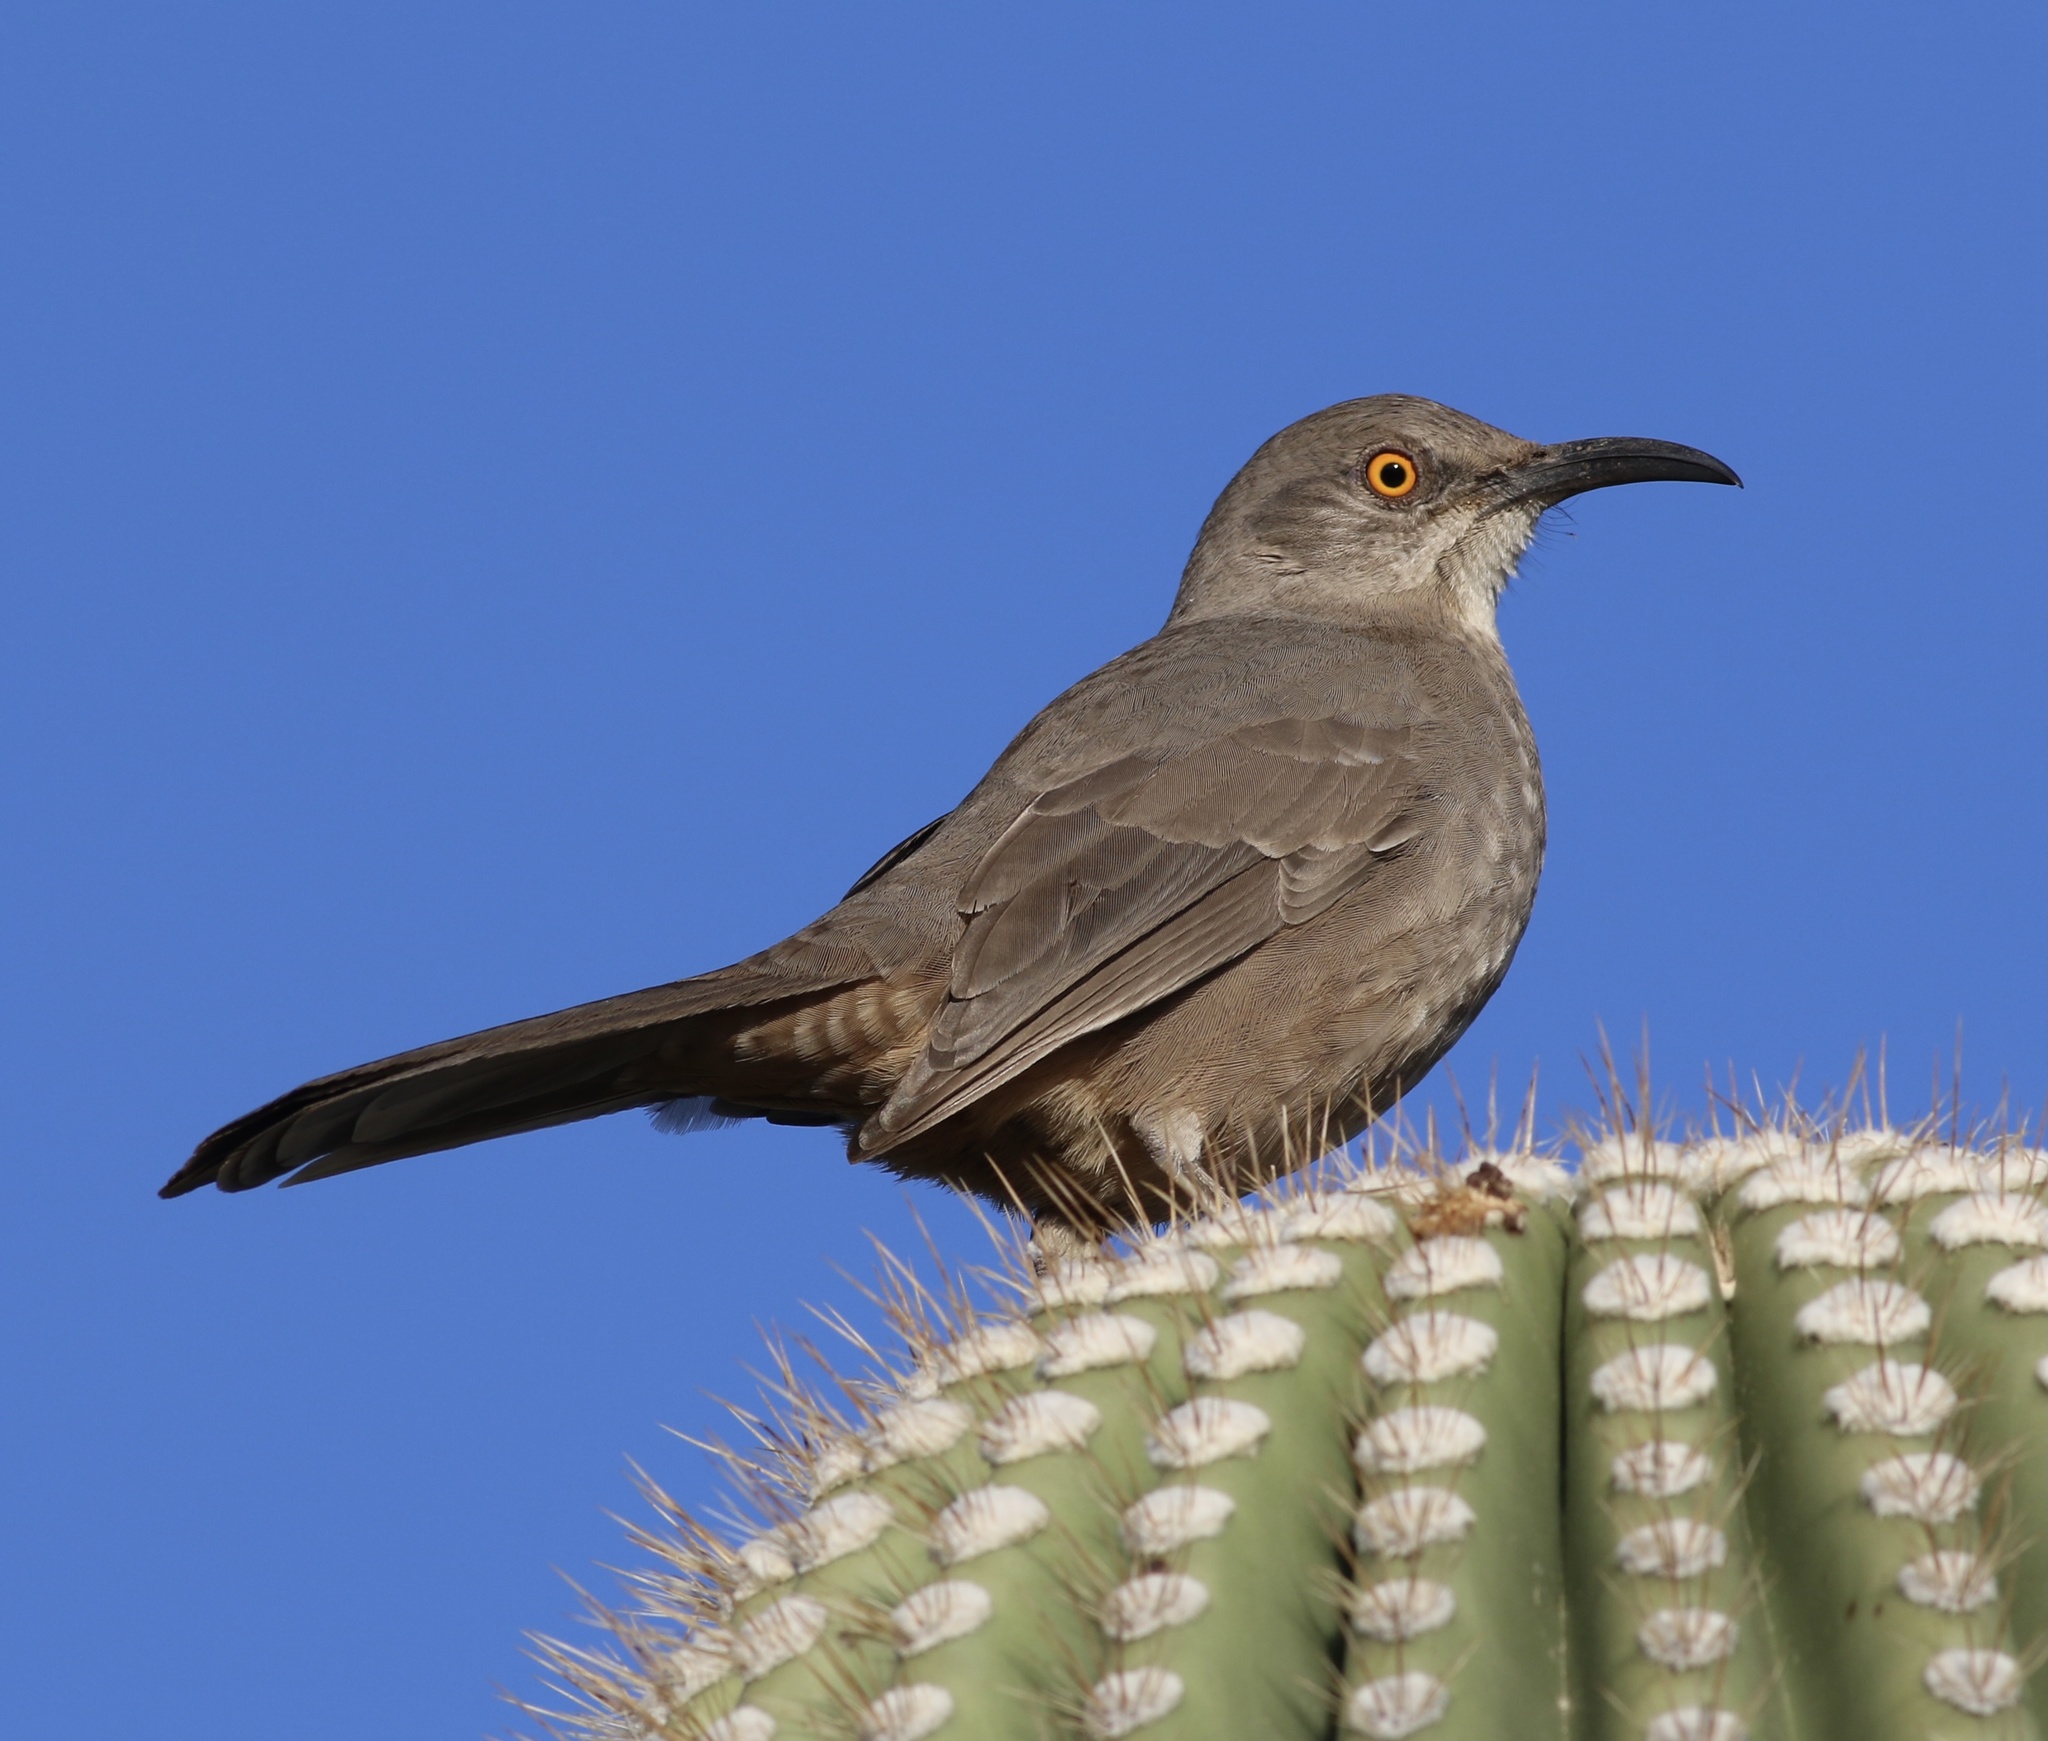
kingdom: Animalia
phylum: Chordata
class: Aves
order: Passeriformes
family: Mimidae
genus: Toxostoma
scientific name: Toxostoma curvirostre
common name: Curve-billed thrasher
